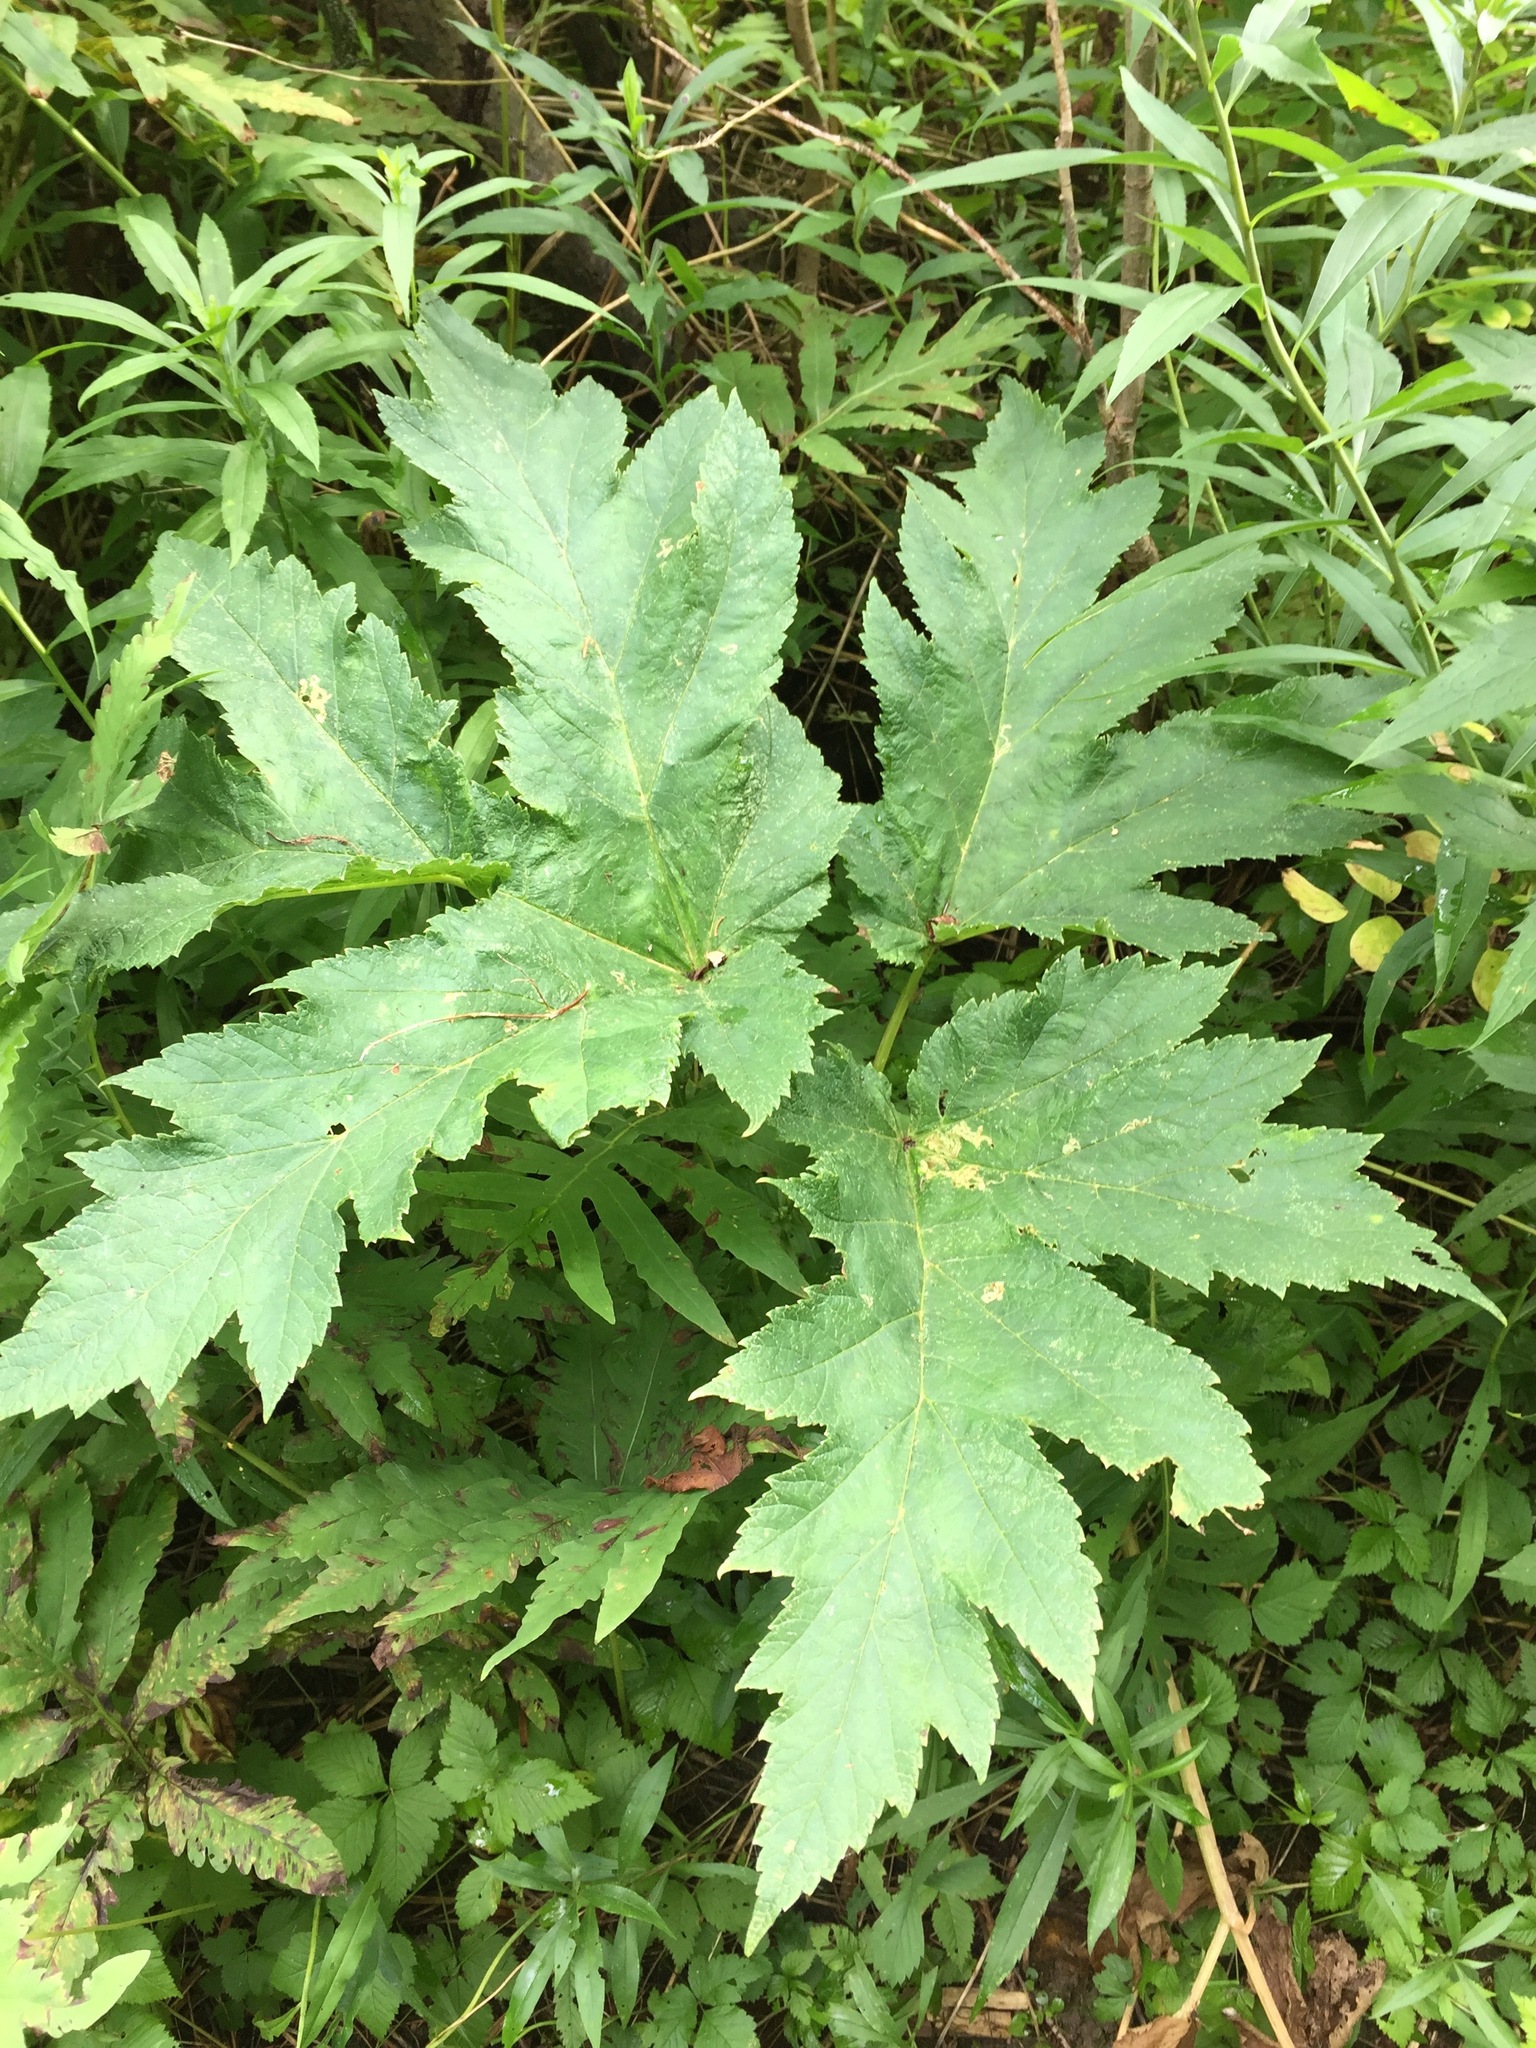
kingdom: Plantae
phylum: Tracheophyta
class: Magnoliopsida
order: Apiales
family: Apiaceae
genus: Heracleum
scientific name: Heracleum maximum
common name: American cow parsnip
